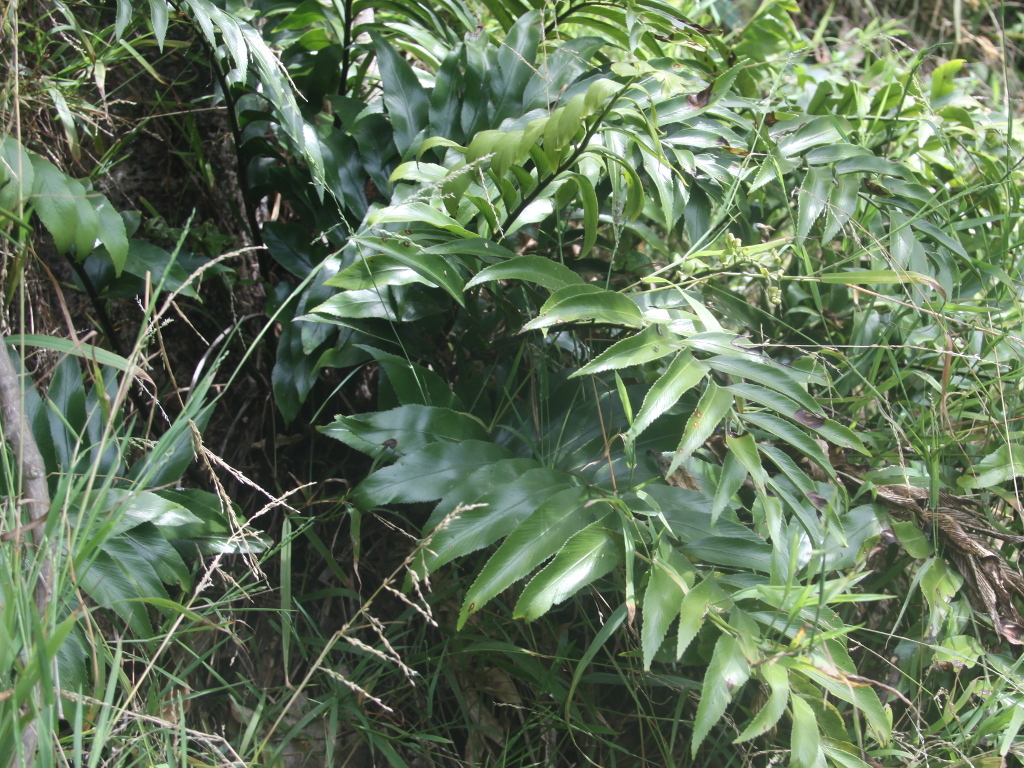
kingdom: Plantae
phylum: Tracheophyta
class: Polypodiopsida
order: Polypodiales
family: Aspleniaceae
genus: Asplenium
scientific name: Asplenium oblongifolium
